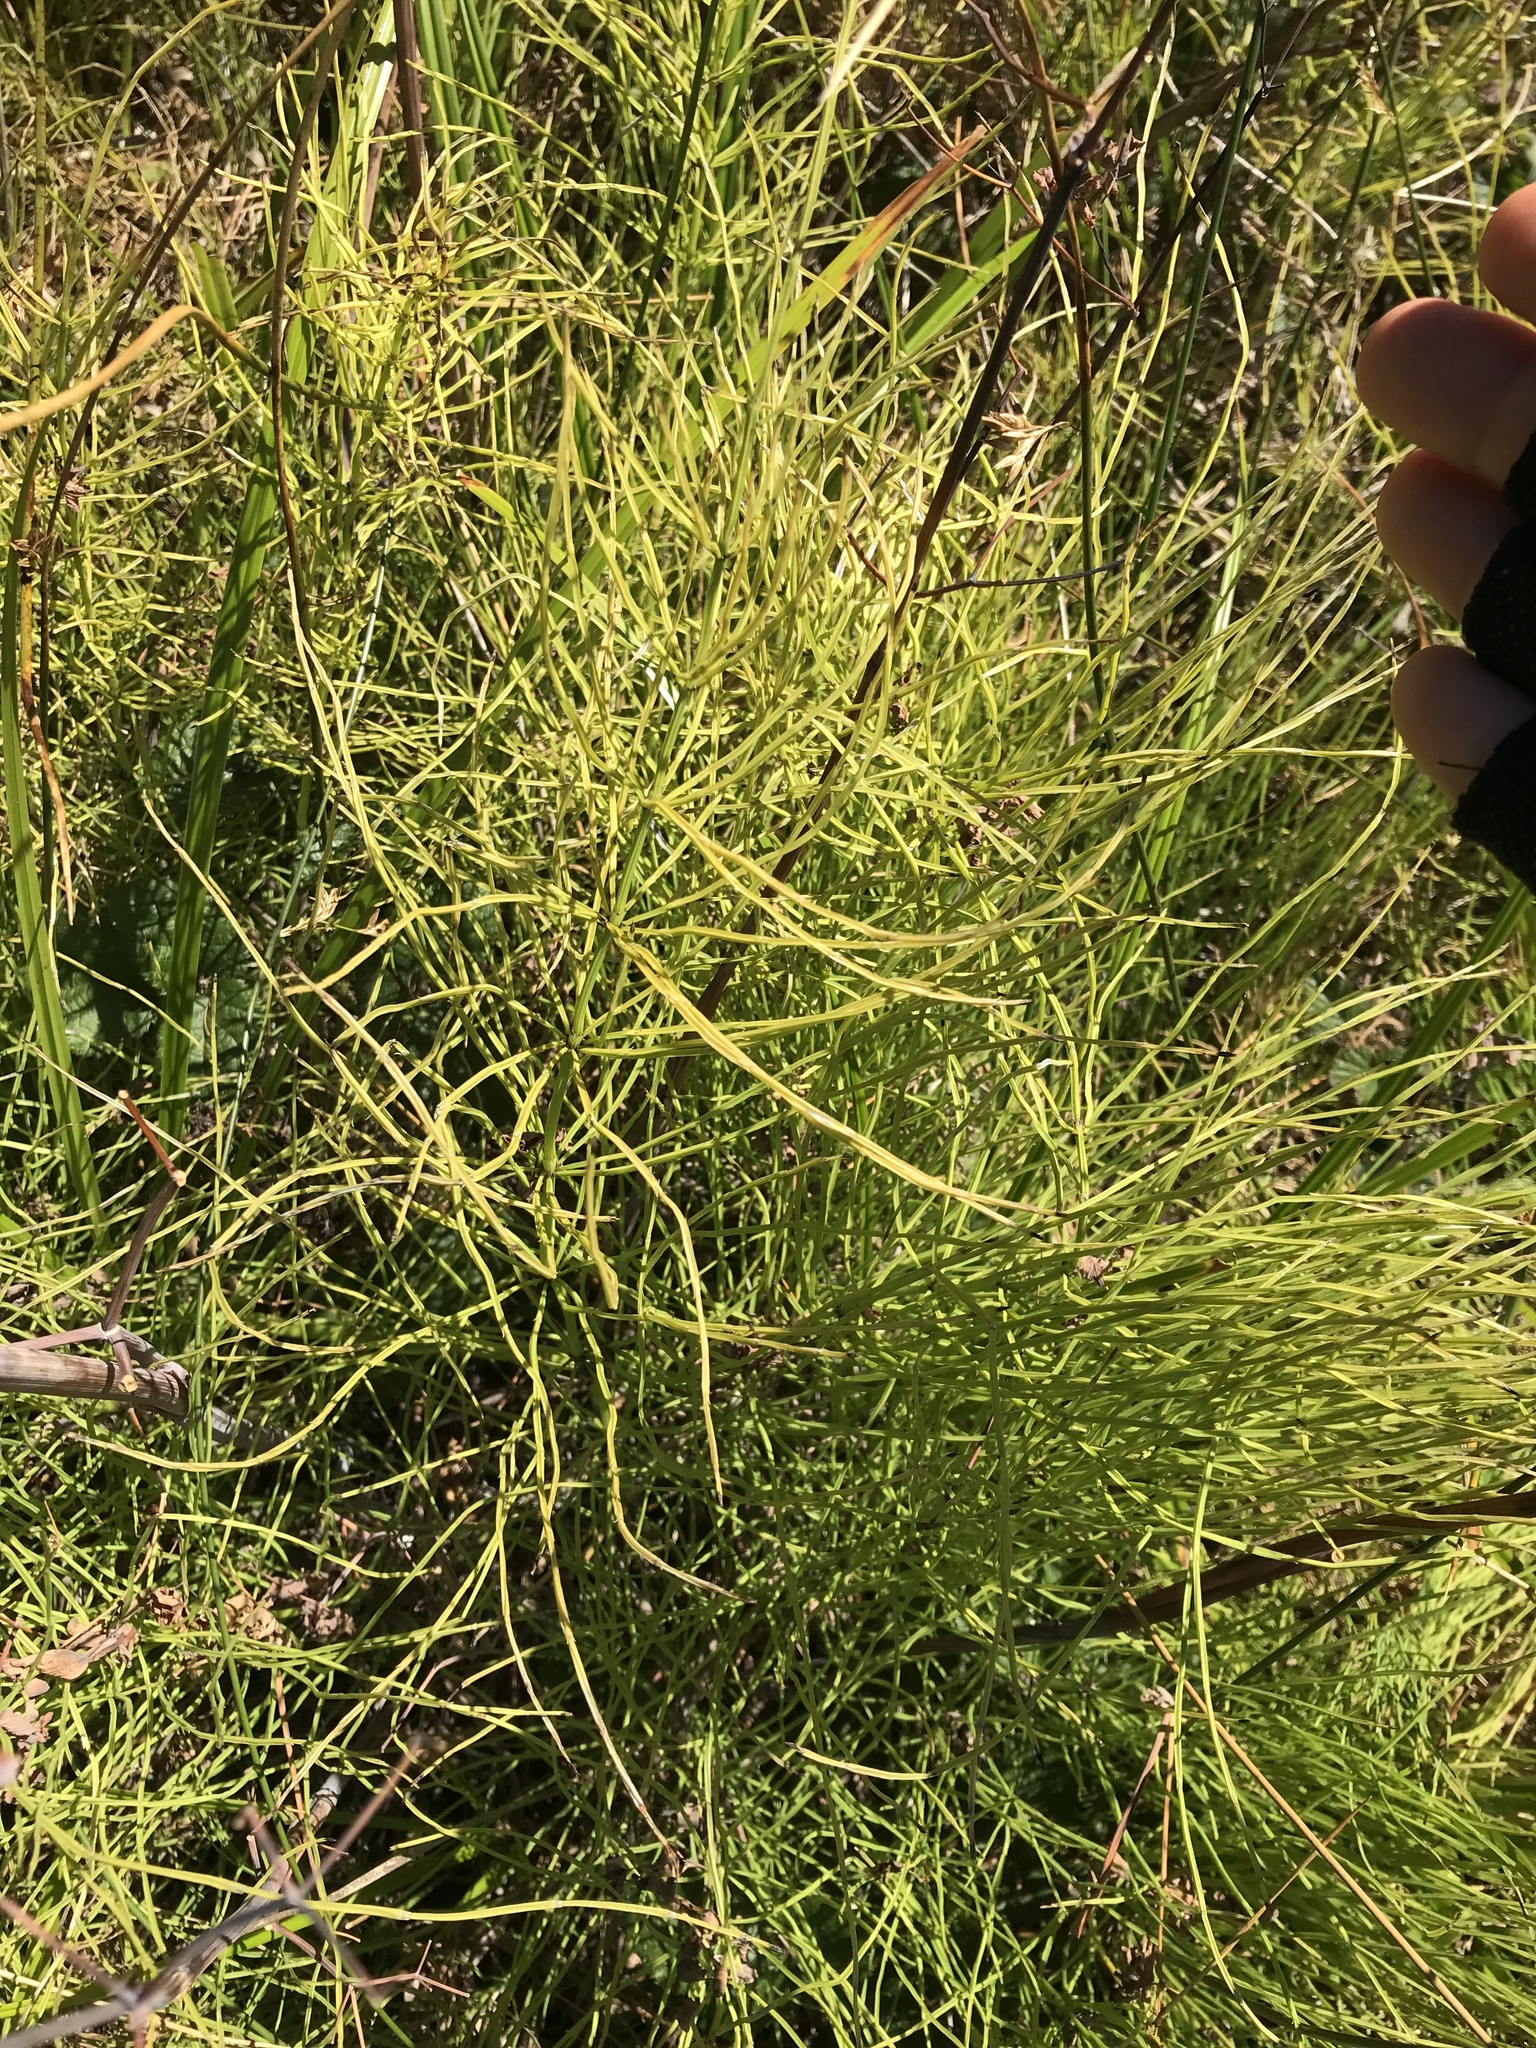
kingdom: Plantae
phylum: Tracheophyta
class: Polypodiopsida
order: Equisetales
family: Equisetaceae
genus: Equisetum
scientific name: Equisetum arvense
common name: Field horsetail
